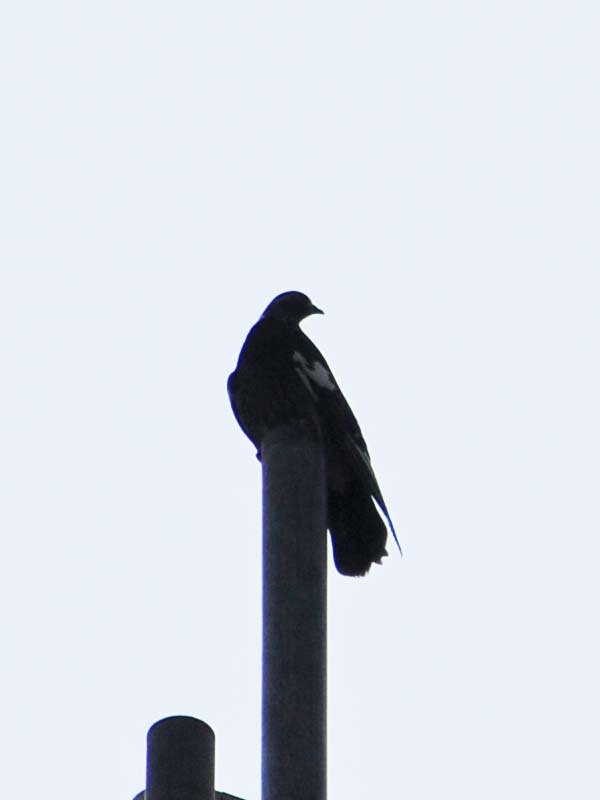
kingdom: Animalia
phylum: Chordata
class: Aves
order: Columbiformes
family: Columbidae
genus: Columba
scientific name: Columba livia
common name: Rock pigeon
